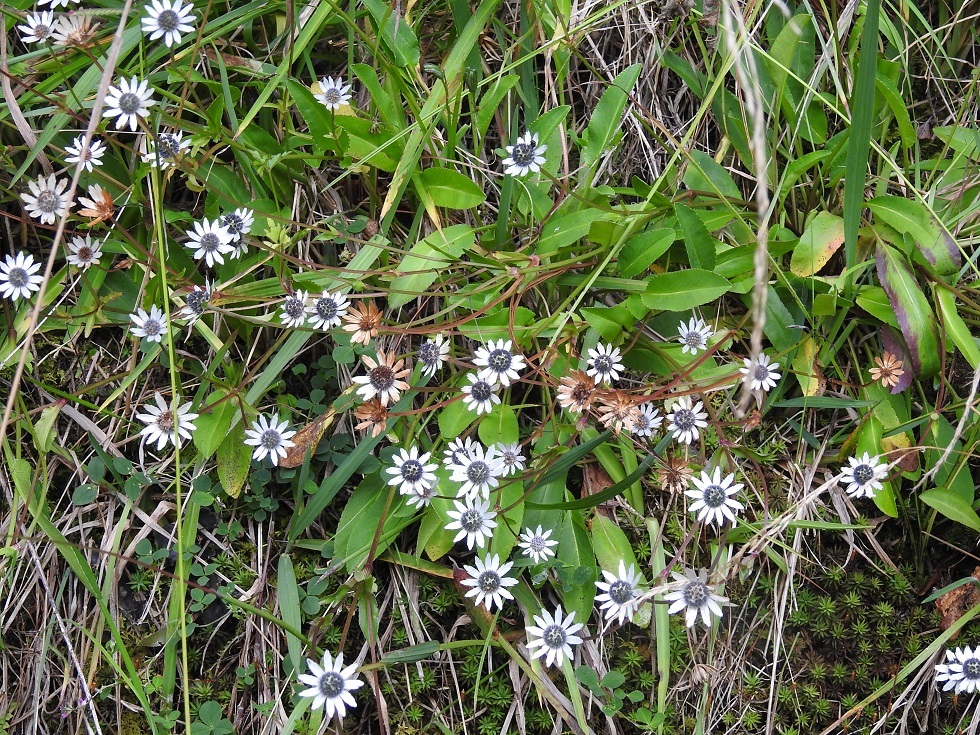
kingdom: Plantae
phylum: Tracheophyta
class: Magnoliopsida
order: Apiales
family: Apiaceae
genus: Eryngium
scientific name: Eryngium scaposum
